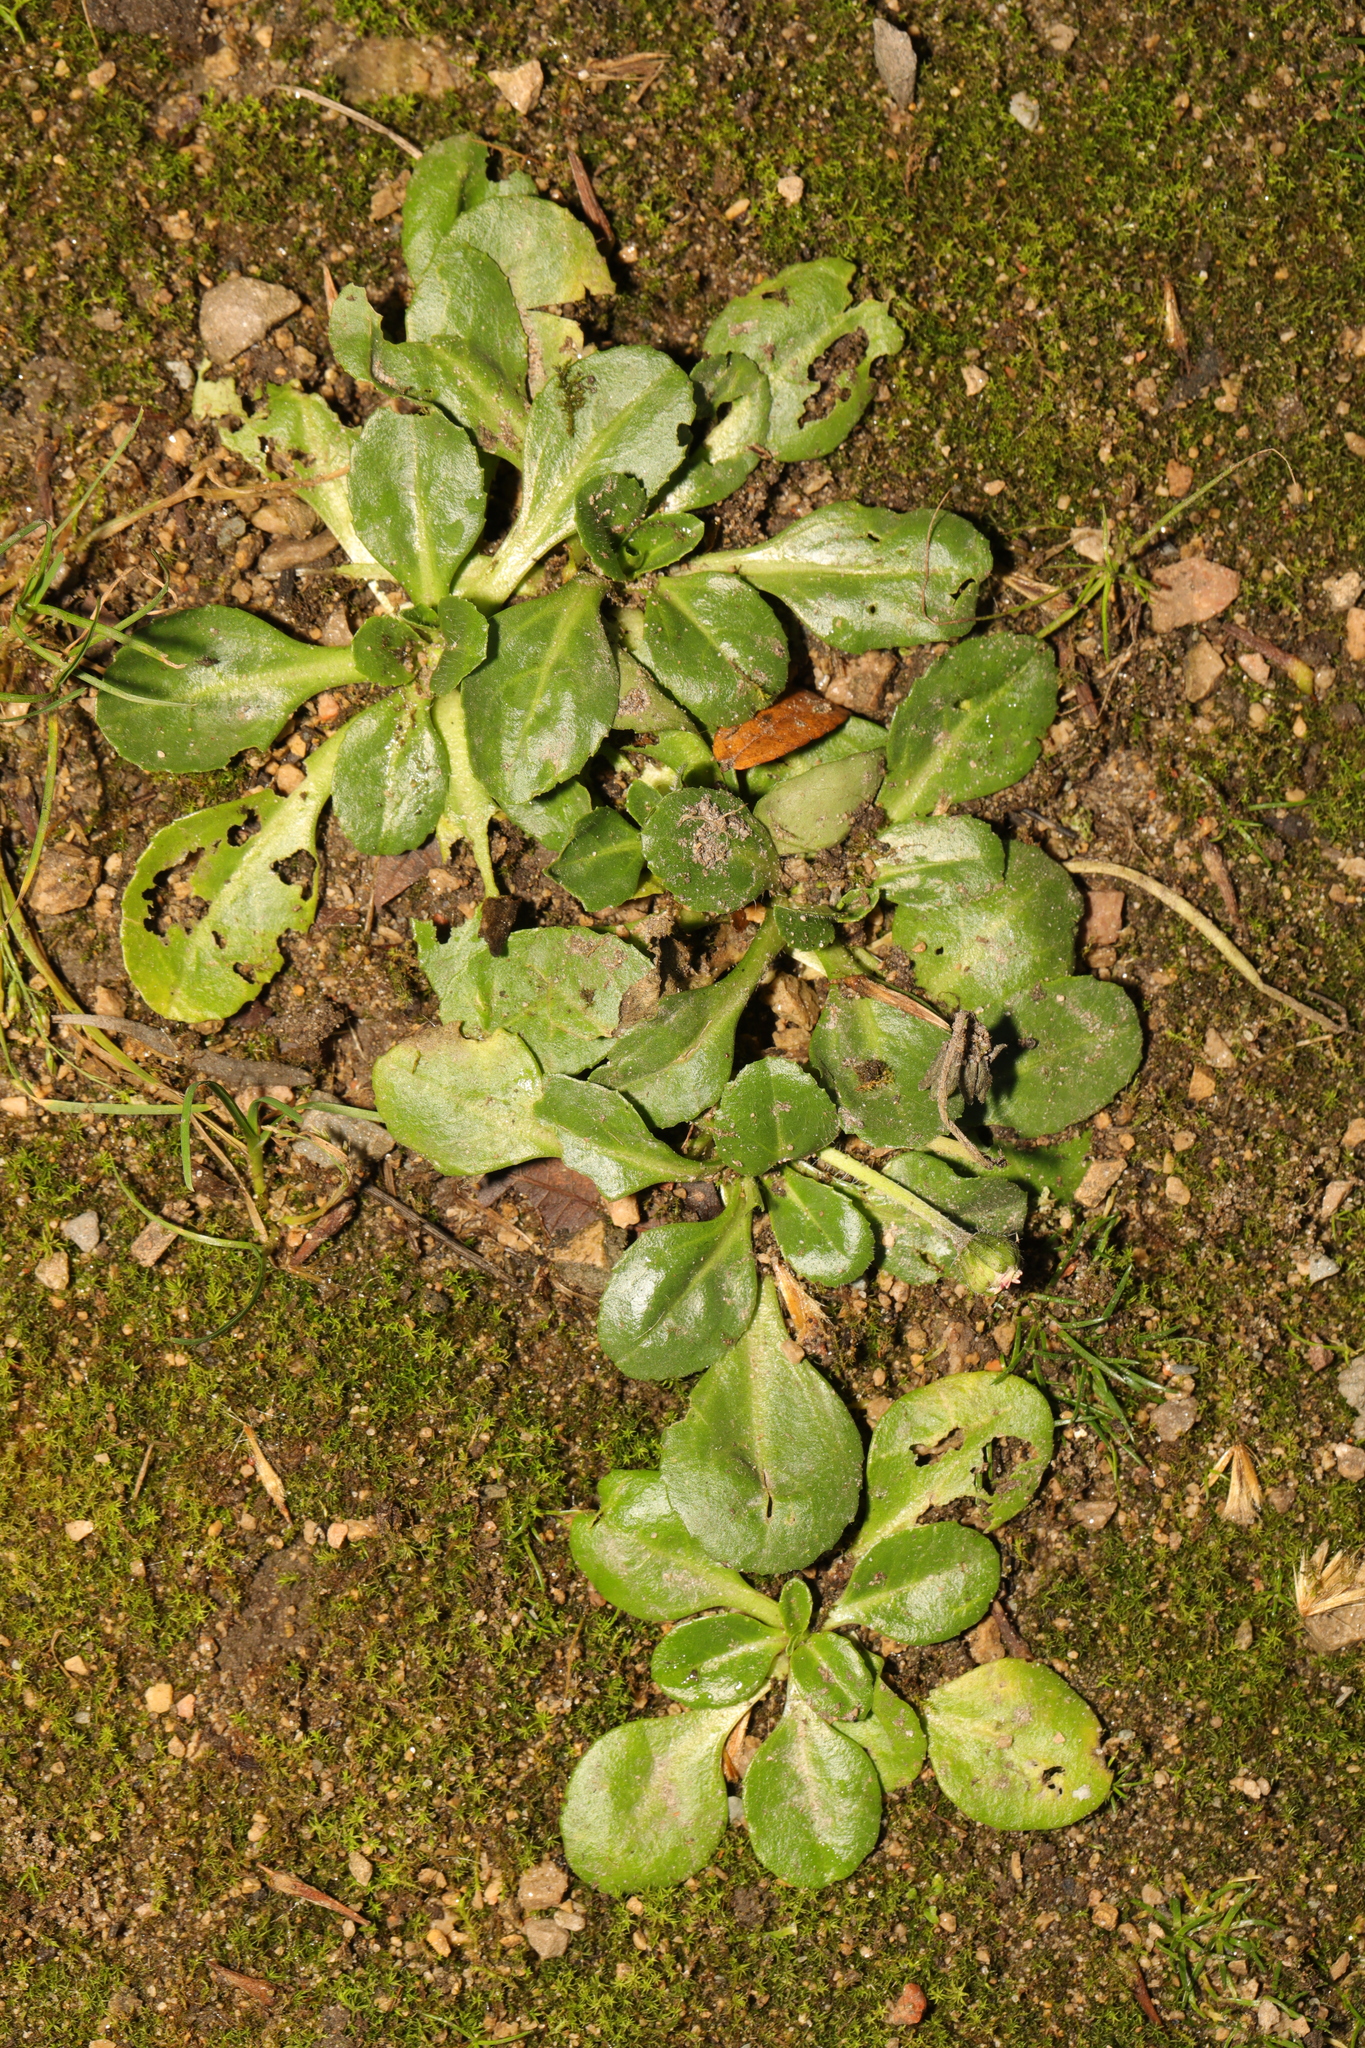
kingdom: Plantae
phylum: Tracheophyta
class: Magnoliopsida
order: Asterales
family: Asteraceae
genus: Bellis
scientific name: Bellis perennis
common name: Lawndaisy
